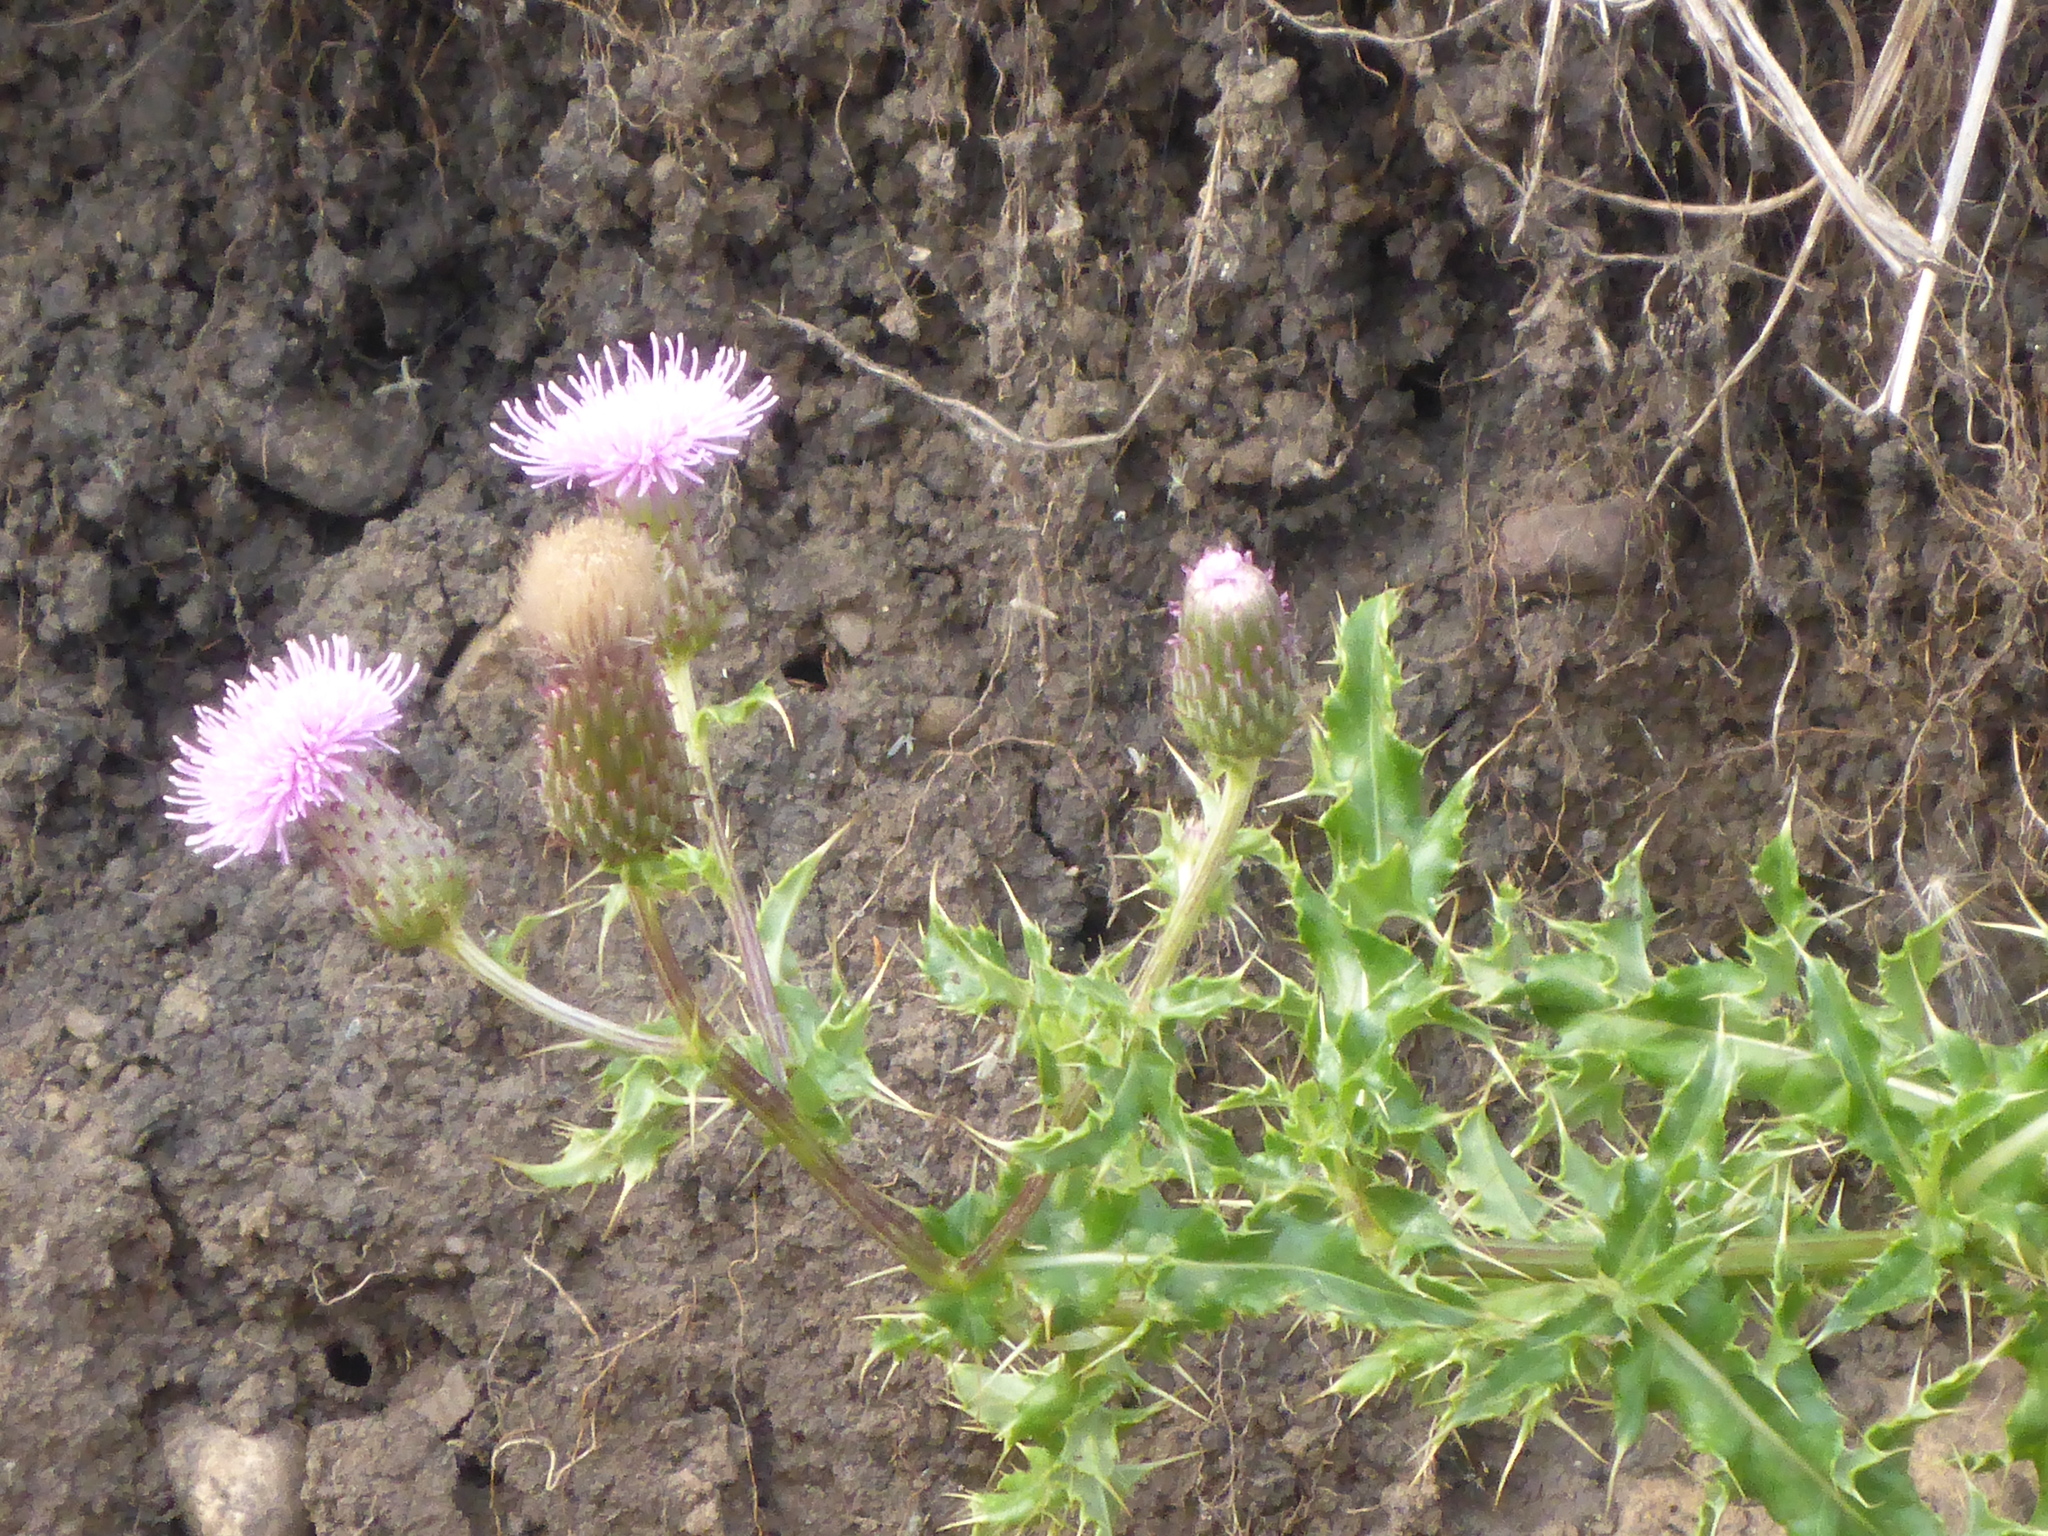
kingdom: Plantae
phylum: Tracheophyta
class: Magnoliopsida
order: Asterales
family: Asteraceae
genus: Cirsium
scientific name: Cirsium arvense
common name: Creeping thistle
